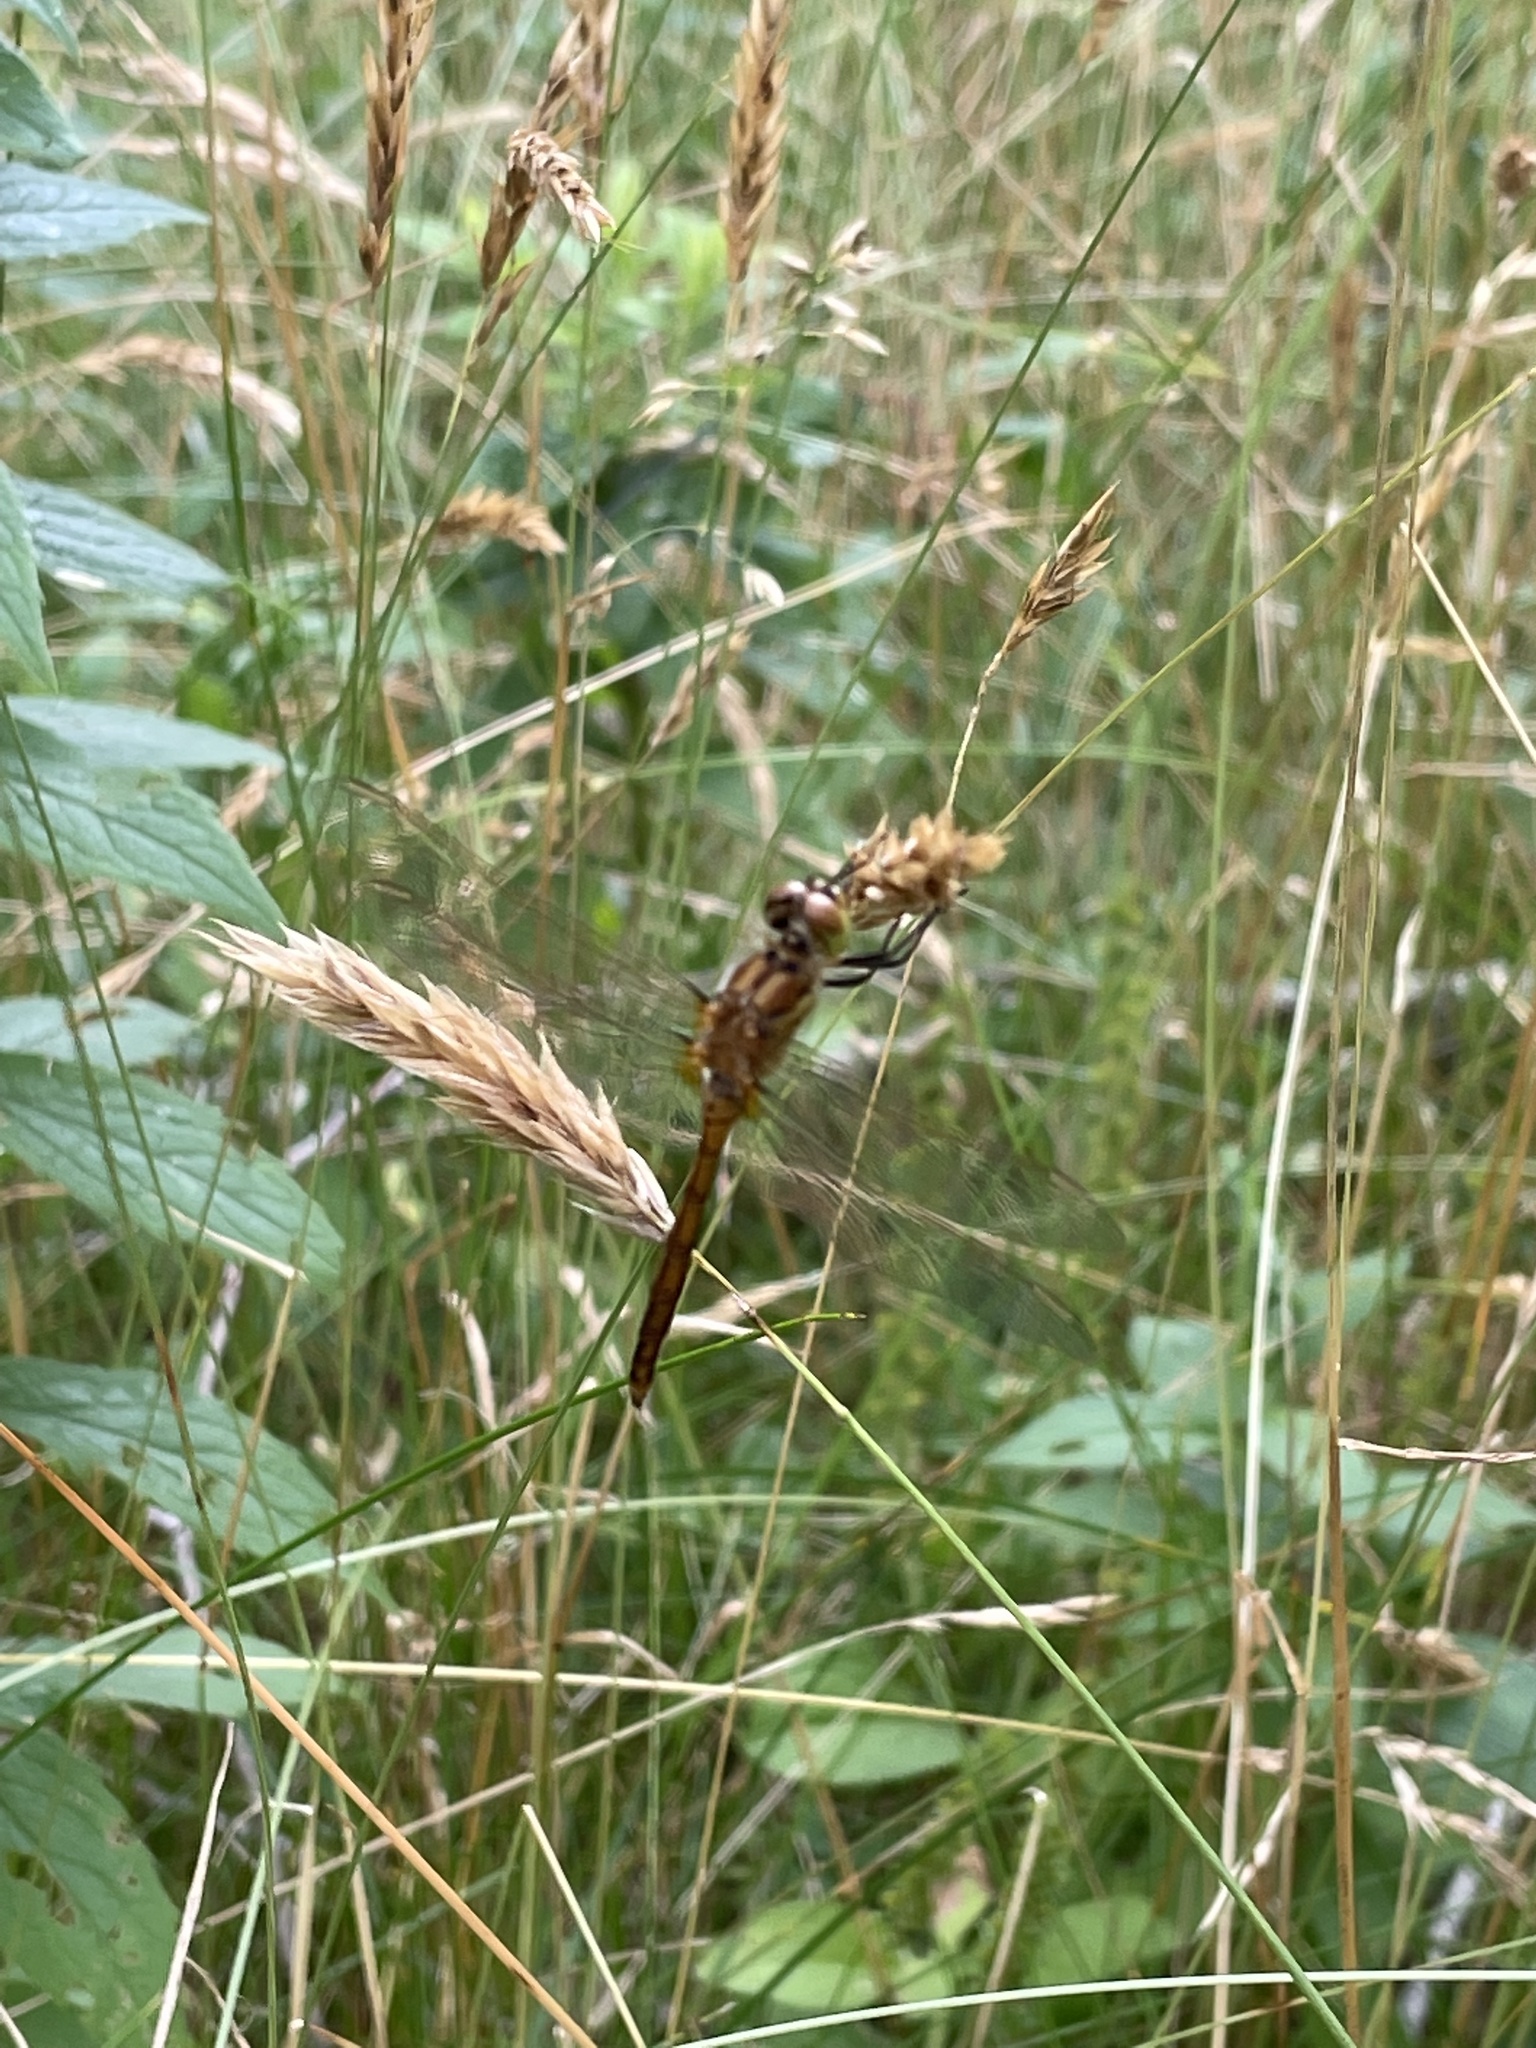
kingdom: Animalia
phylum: Arthropoda
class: Insecta
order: Odonata
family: Libellulidae
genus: Sympetrum
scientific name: Sympetrum costiferum
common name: Saffron-winged meadowhawk
